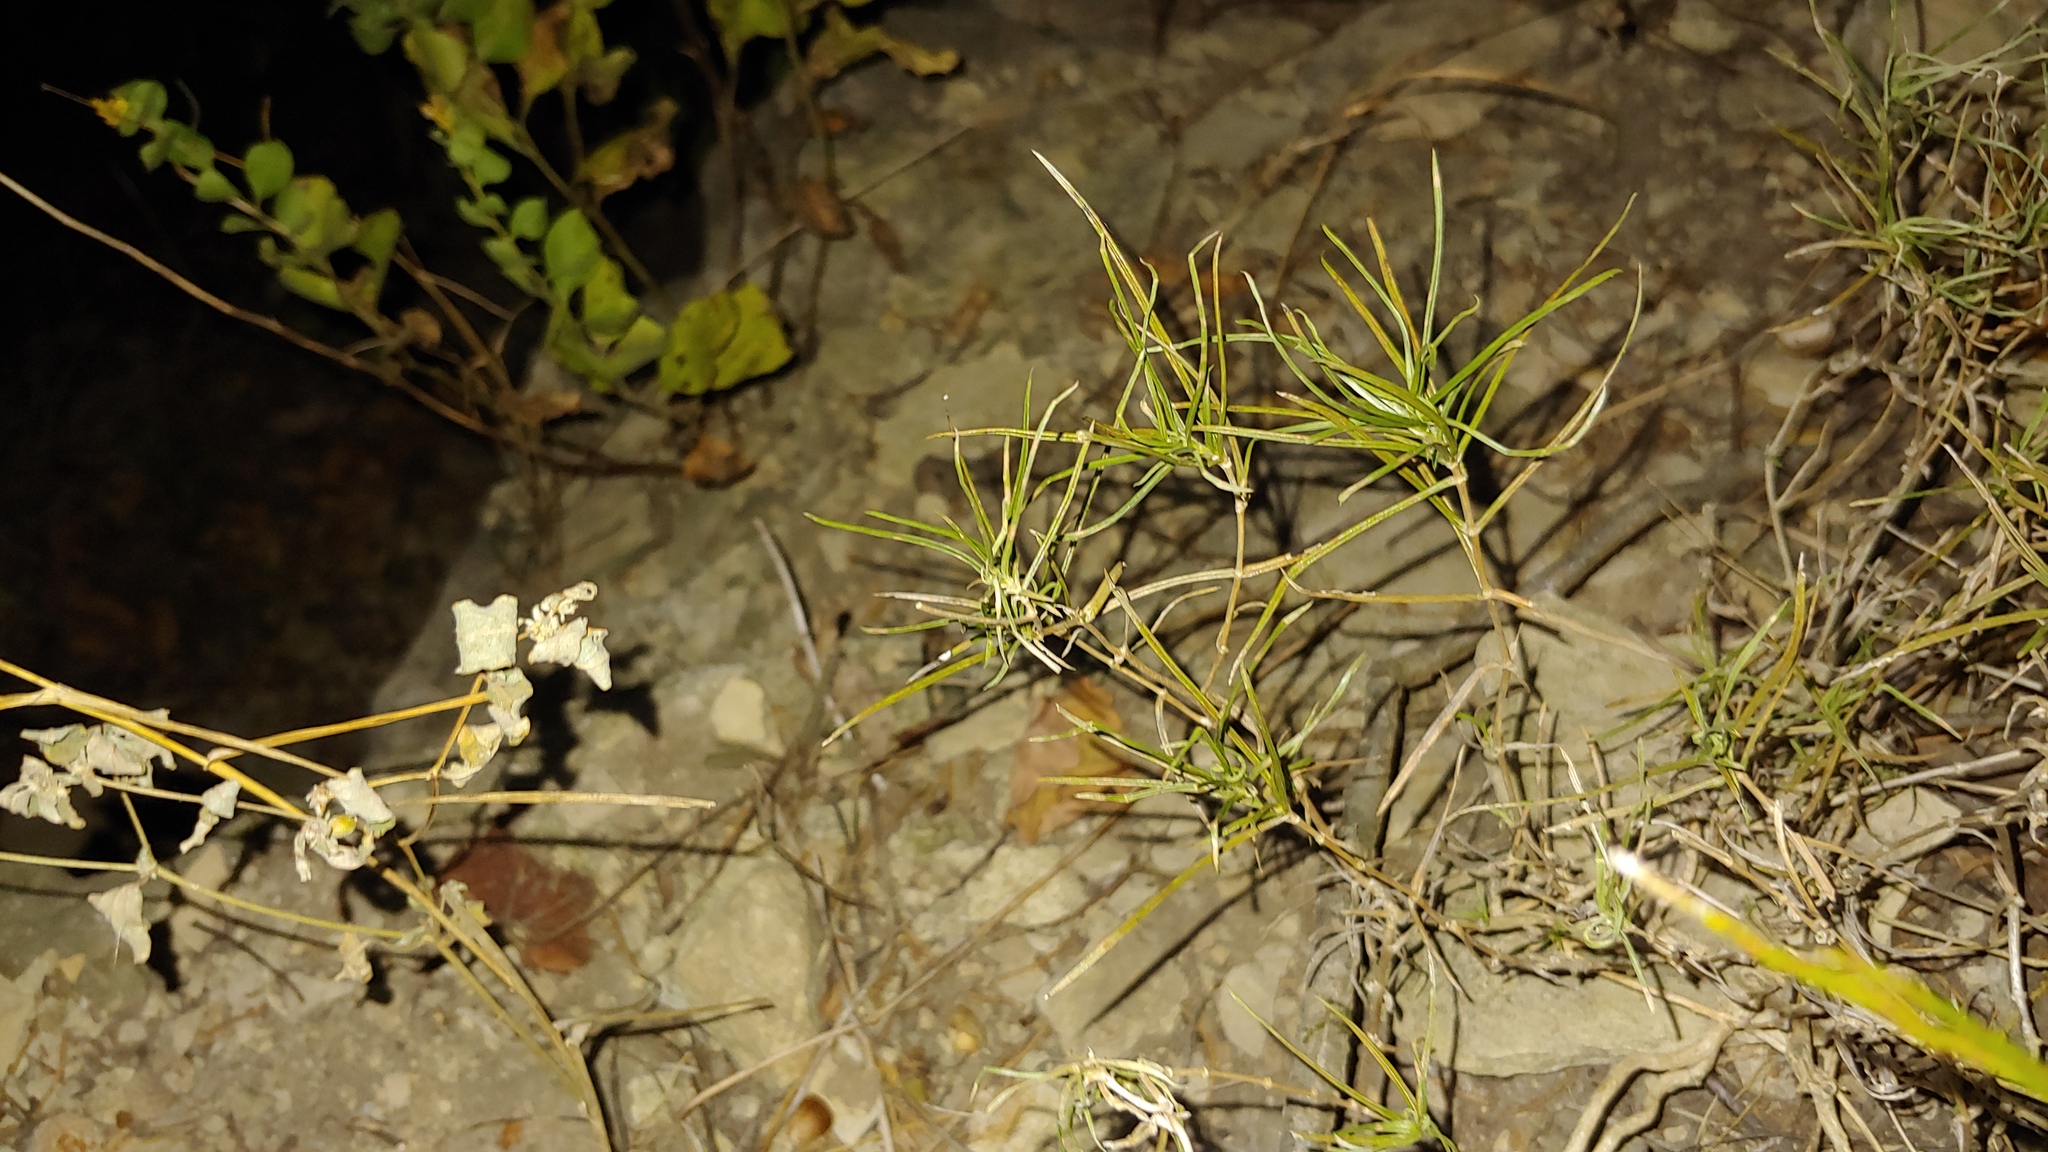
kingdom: Plantae
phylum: Tracheophyta
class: Magnoliopsida
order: Ericales
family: Polemoniaceae
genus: Phlox
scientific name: Phlox bifida
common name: Sand phlox
